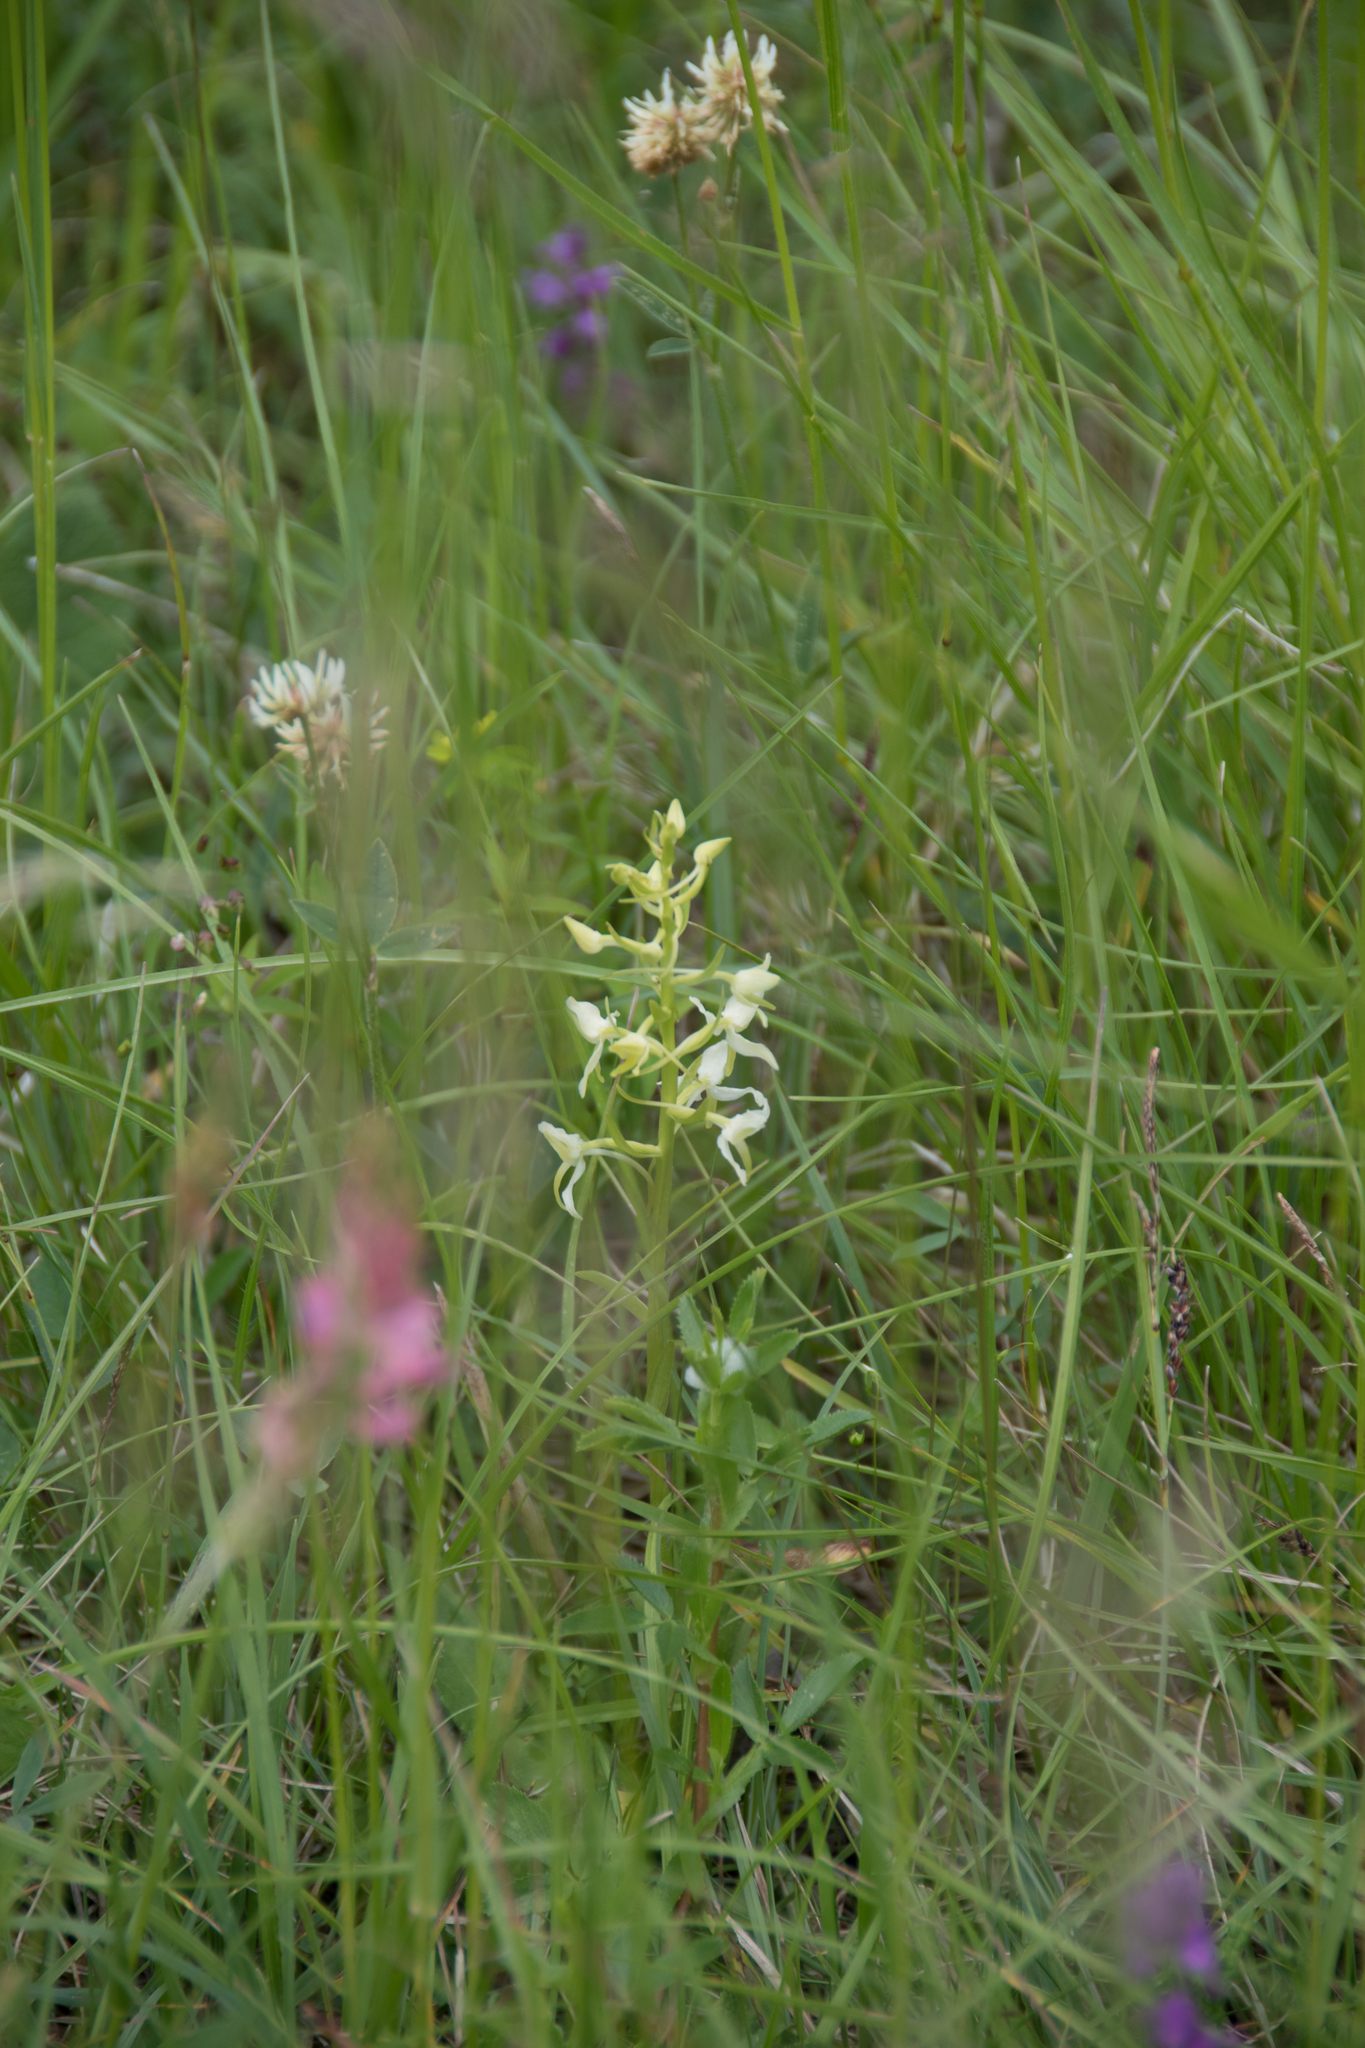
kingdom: Plantae
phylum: Tracheophyta
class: Liliopsida
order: Asparagales
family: Orchidaceae
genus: Platanthera
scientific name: Platanthera bifolia
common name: Lesser butterfly-orchid
